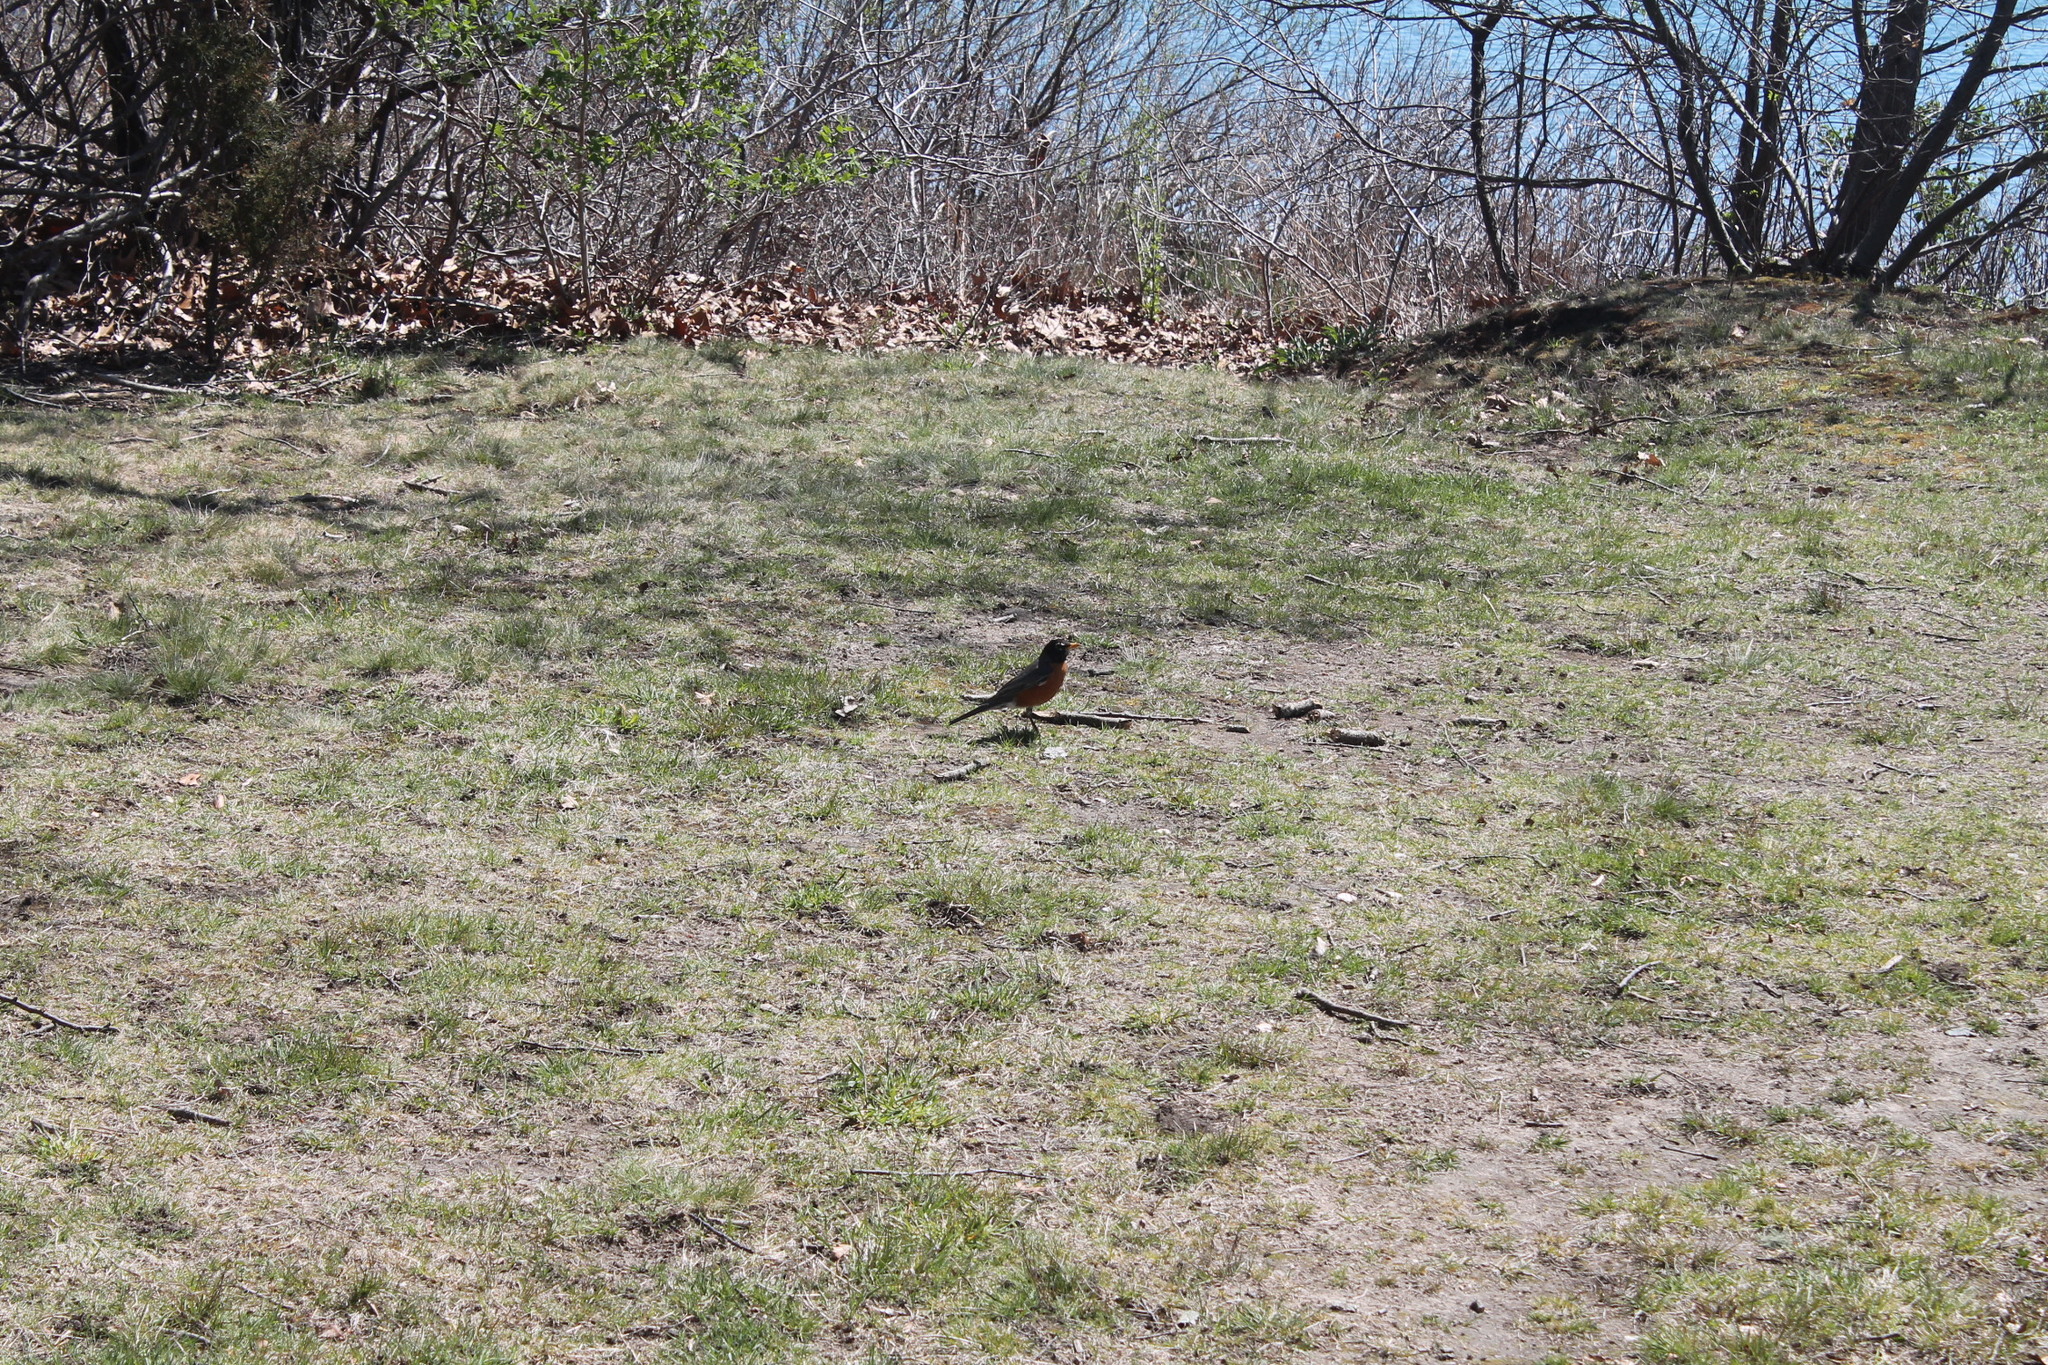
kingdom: Animalia
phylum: Chordata
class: Aves
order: Passeriformes
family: Turdidae
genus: Turdus
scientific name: Turdus migratorius
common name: American robin
